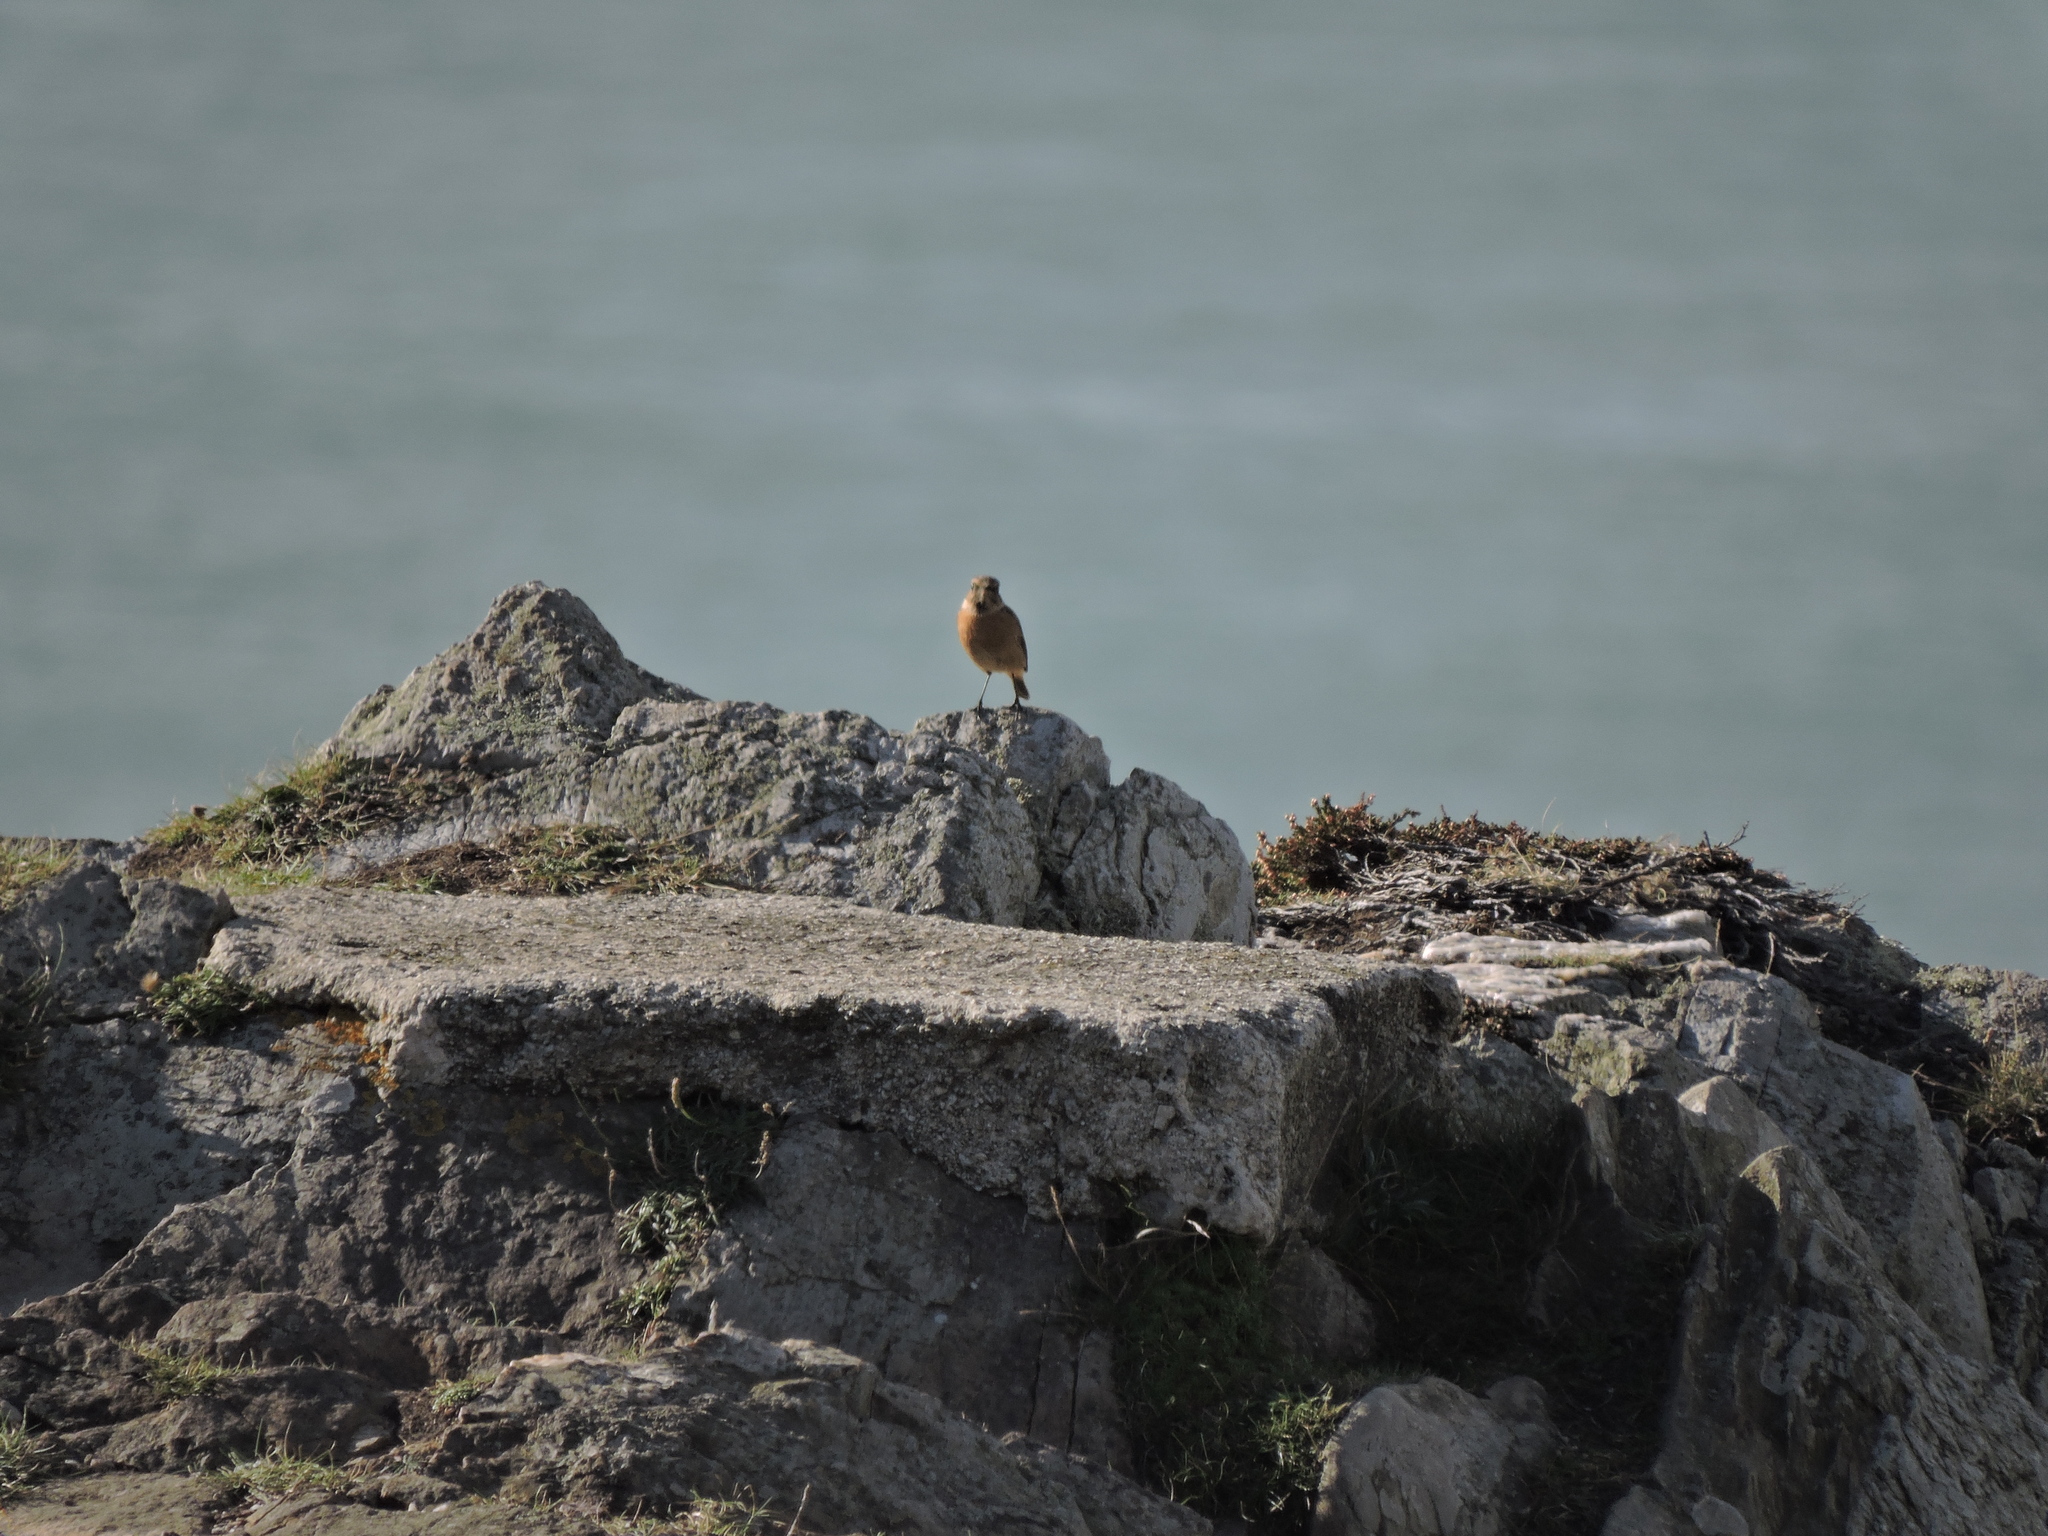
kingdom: Animalia
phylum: Chordata
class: Aves
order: Passeriformes
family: Muscicapidae
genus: Saxicola
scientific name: Saxicola rubicola
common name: European stonechat
